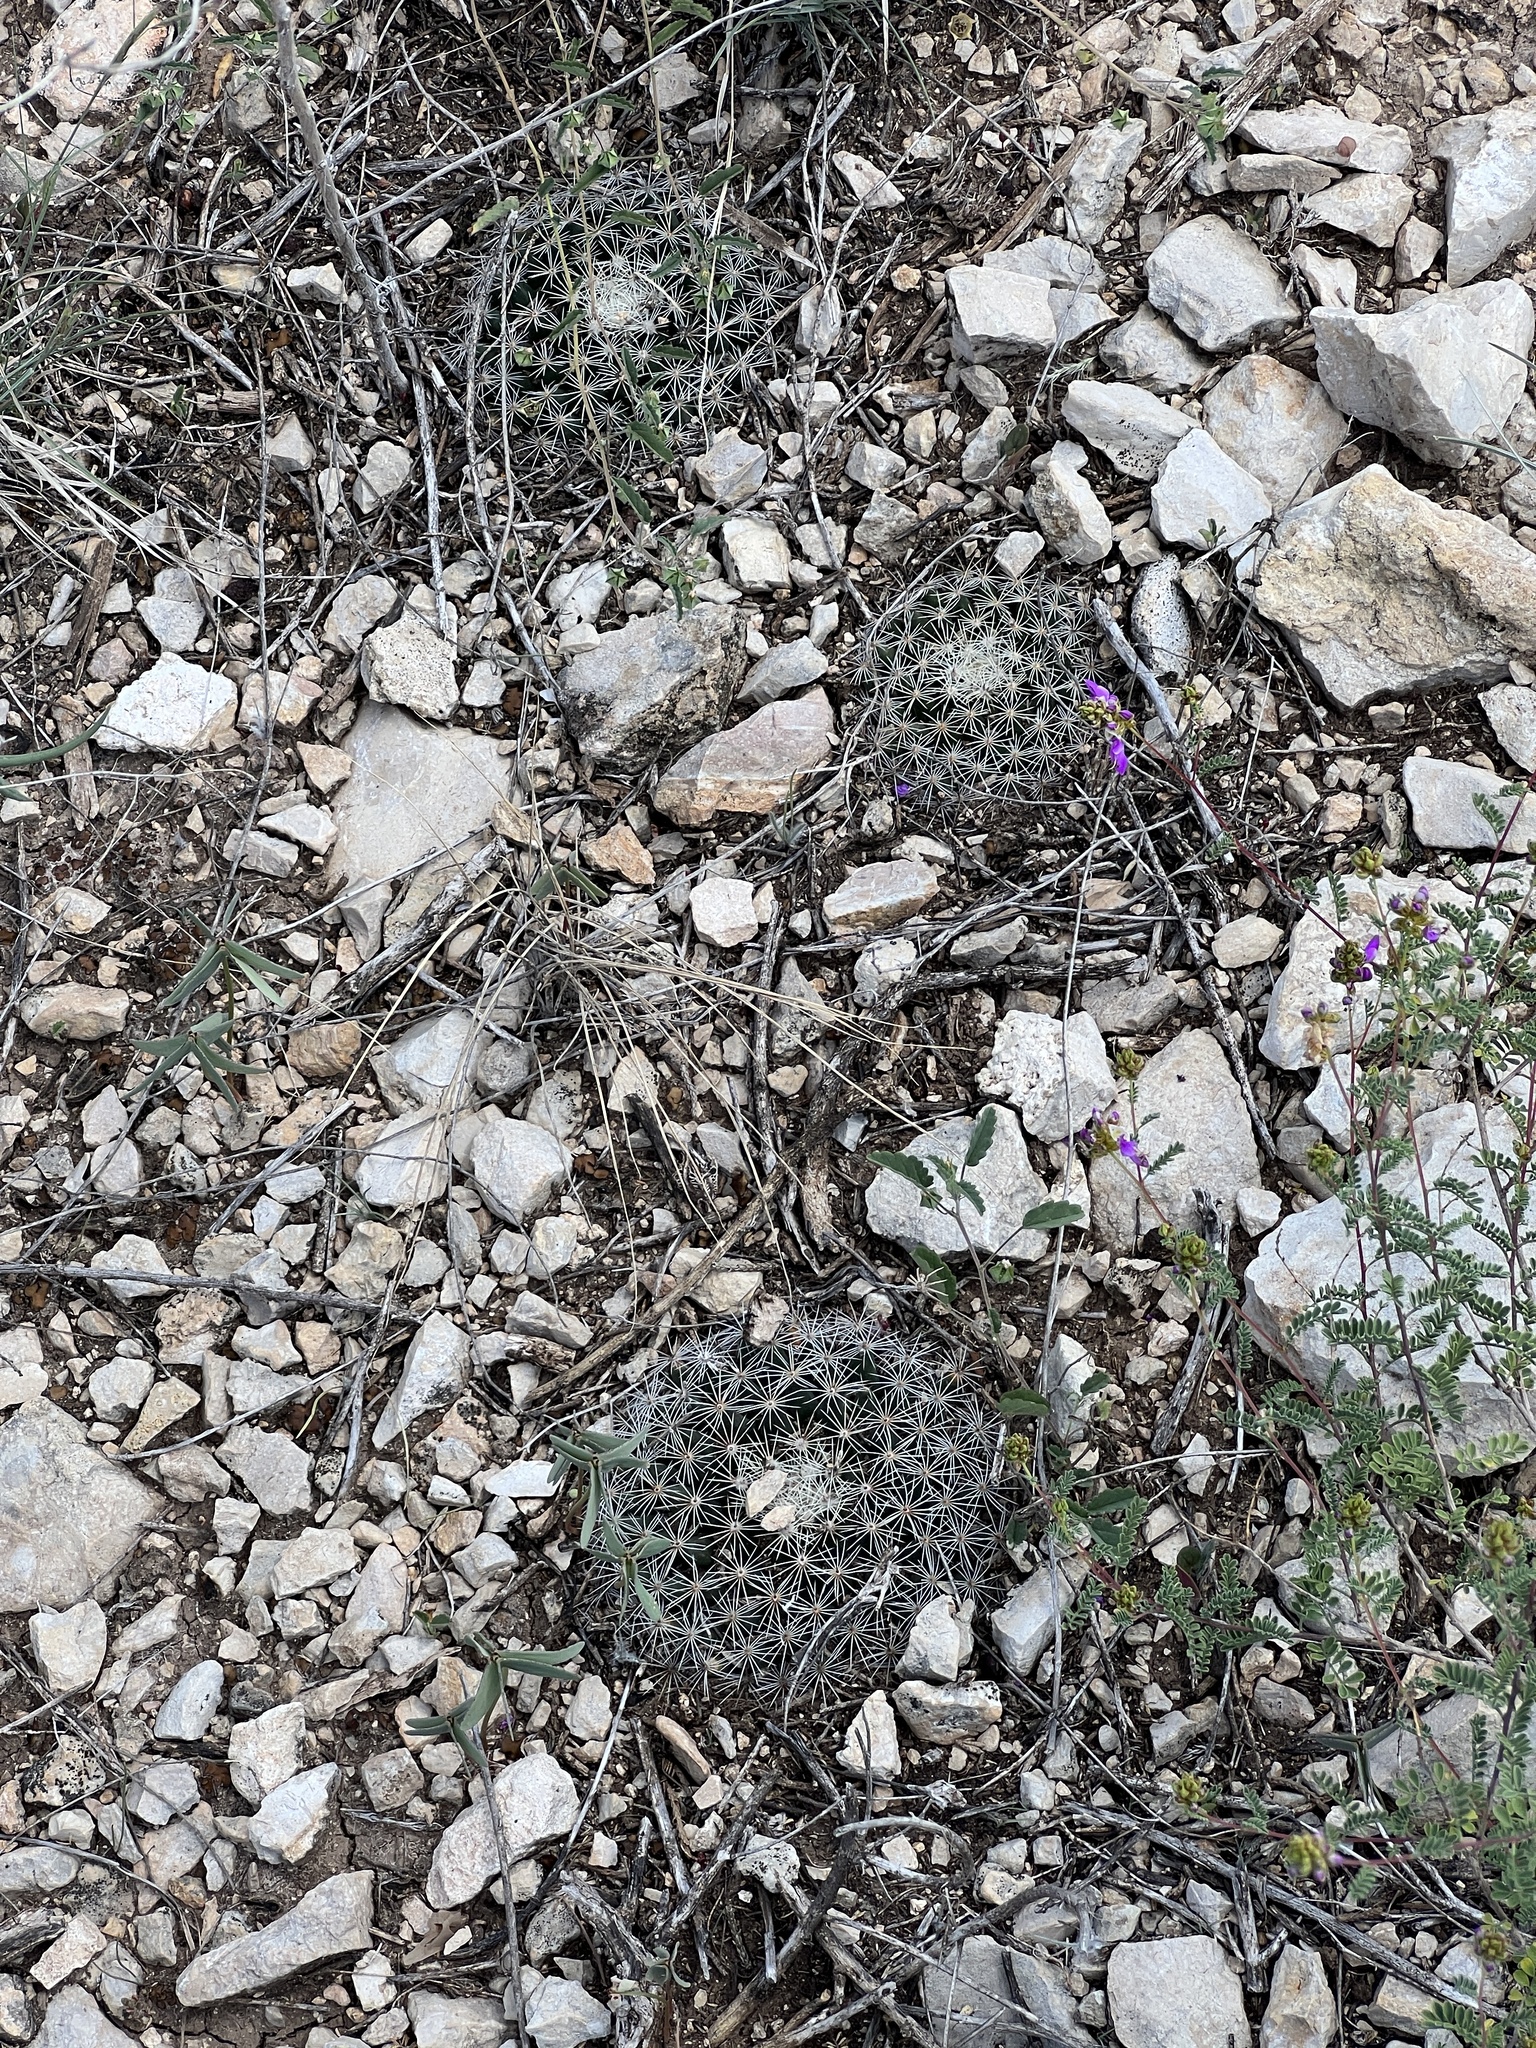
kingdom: Plantae
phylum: Tracheophyta
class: Magnoliopsida
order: Caryophyllales
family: Cactaceae
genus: Mammillaria
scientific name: Mammillaria heyderi
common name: Little nipple cactus
